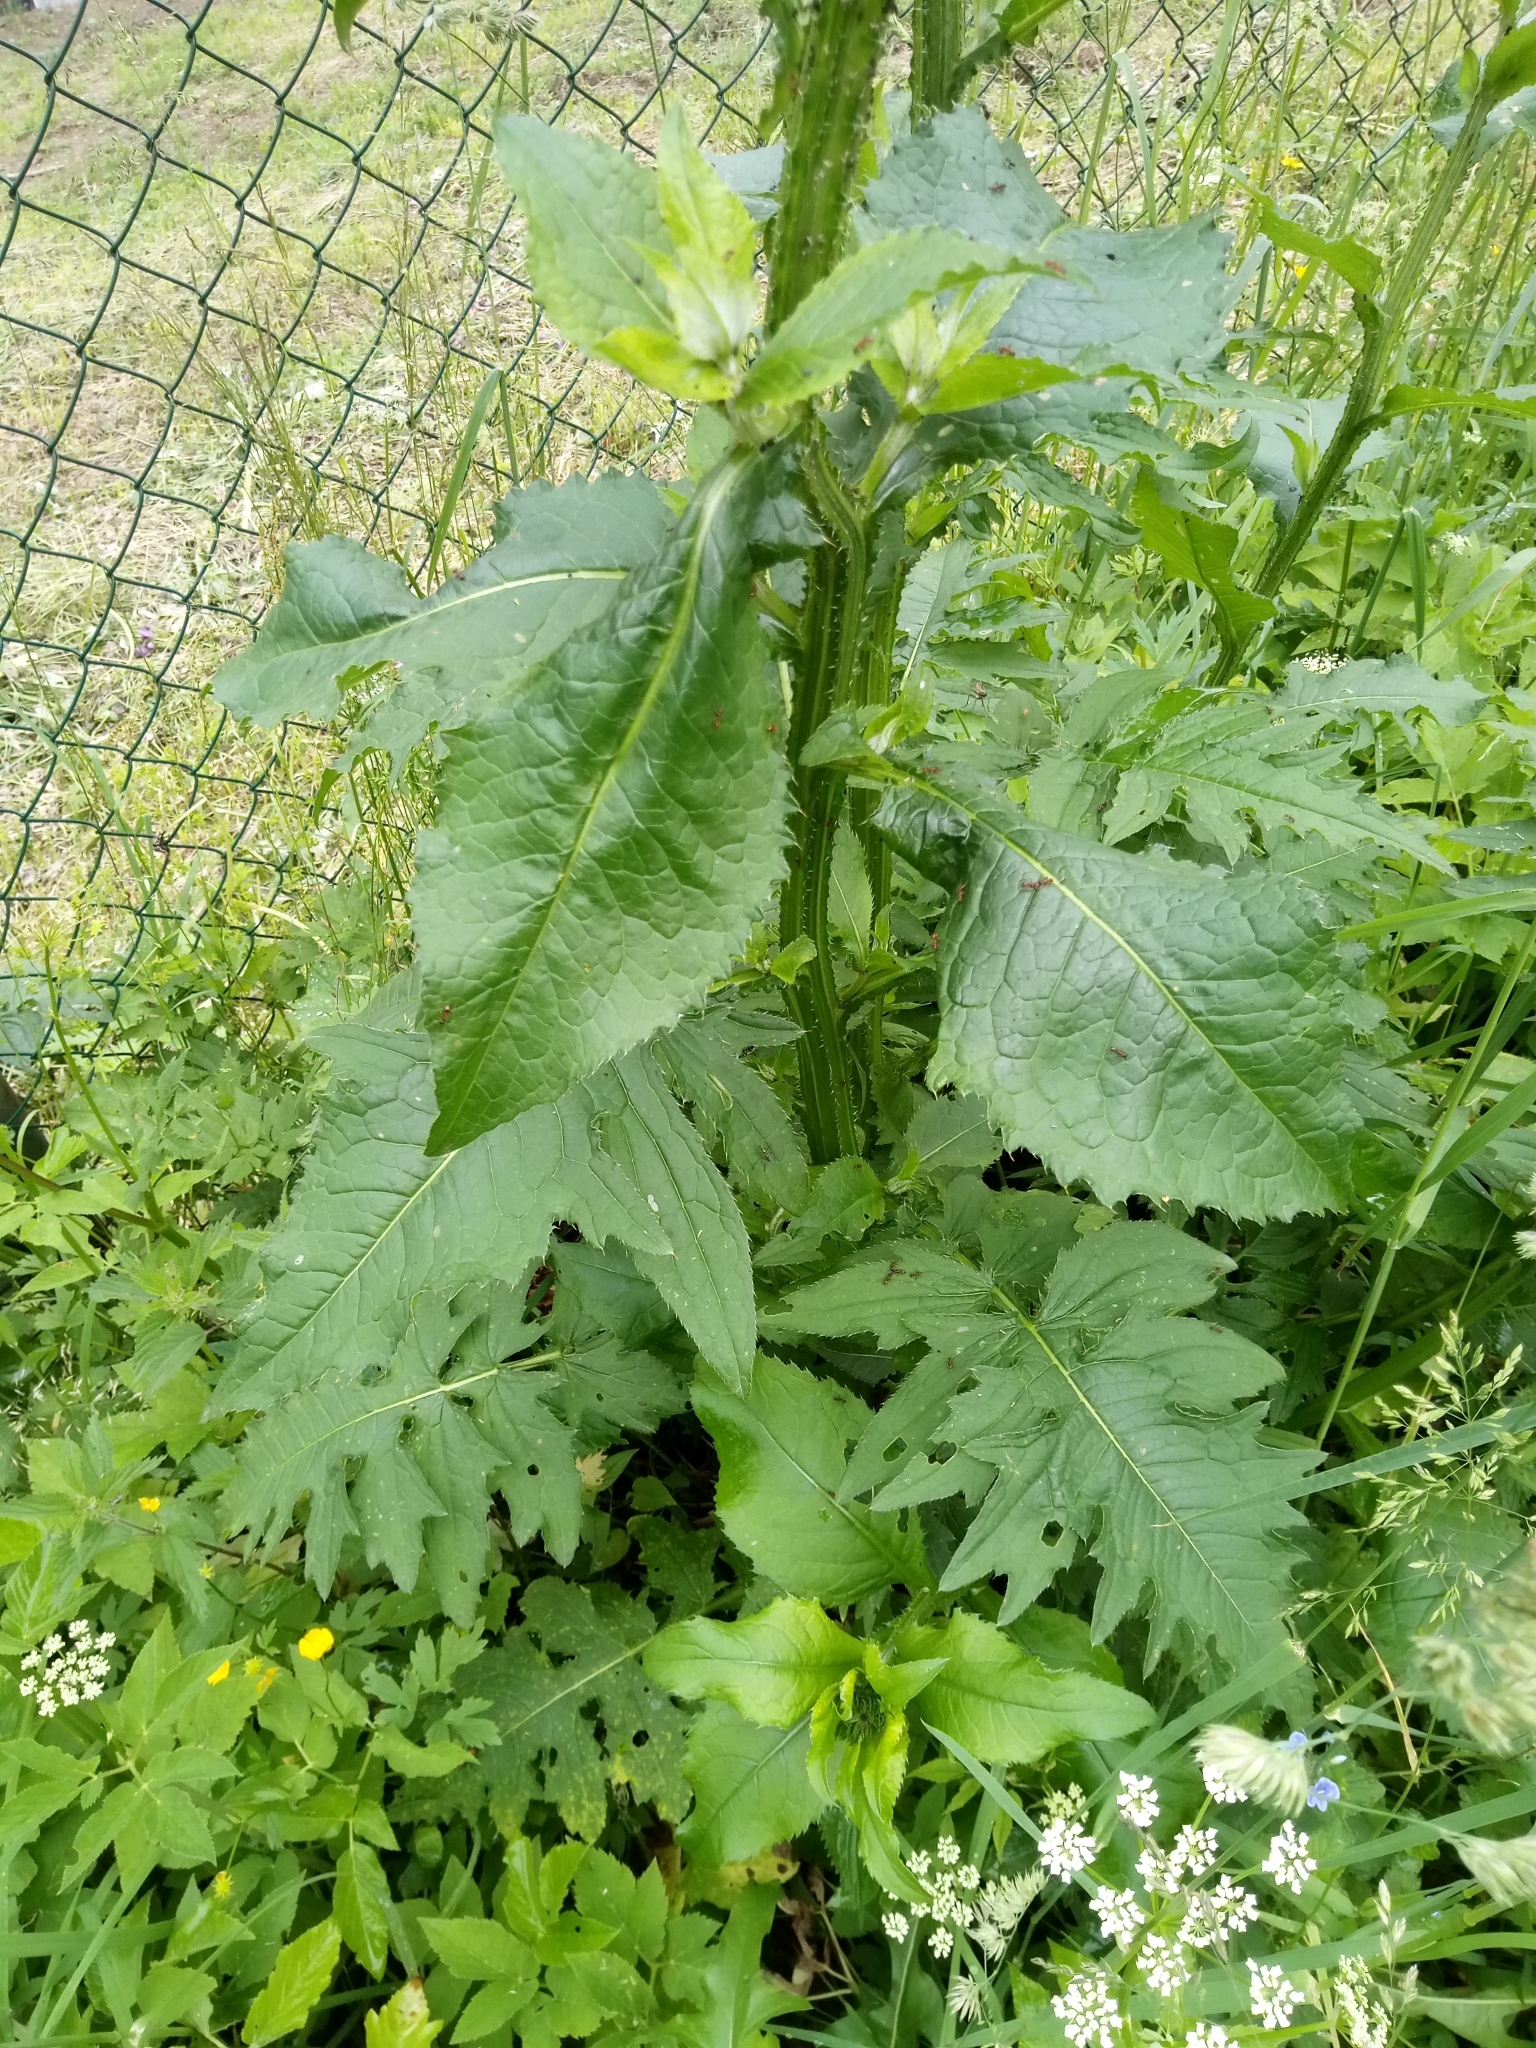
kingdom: Plantae
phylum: Tracheophyta
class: Magnoliopsida
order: Asterales
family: Asteraceae
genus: Carduus
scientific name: Carduus personata
